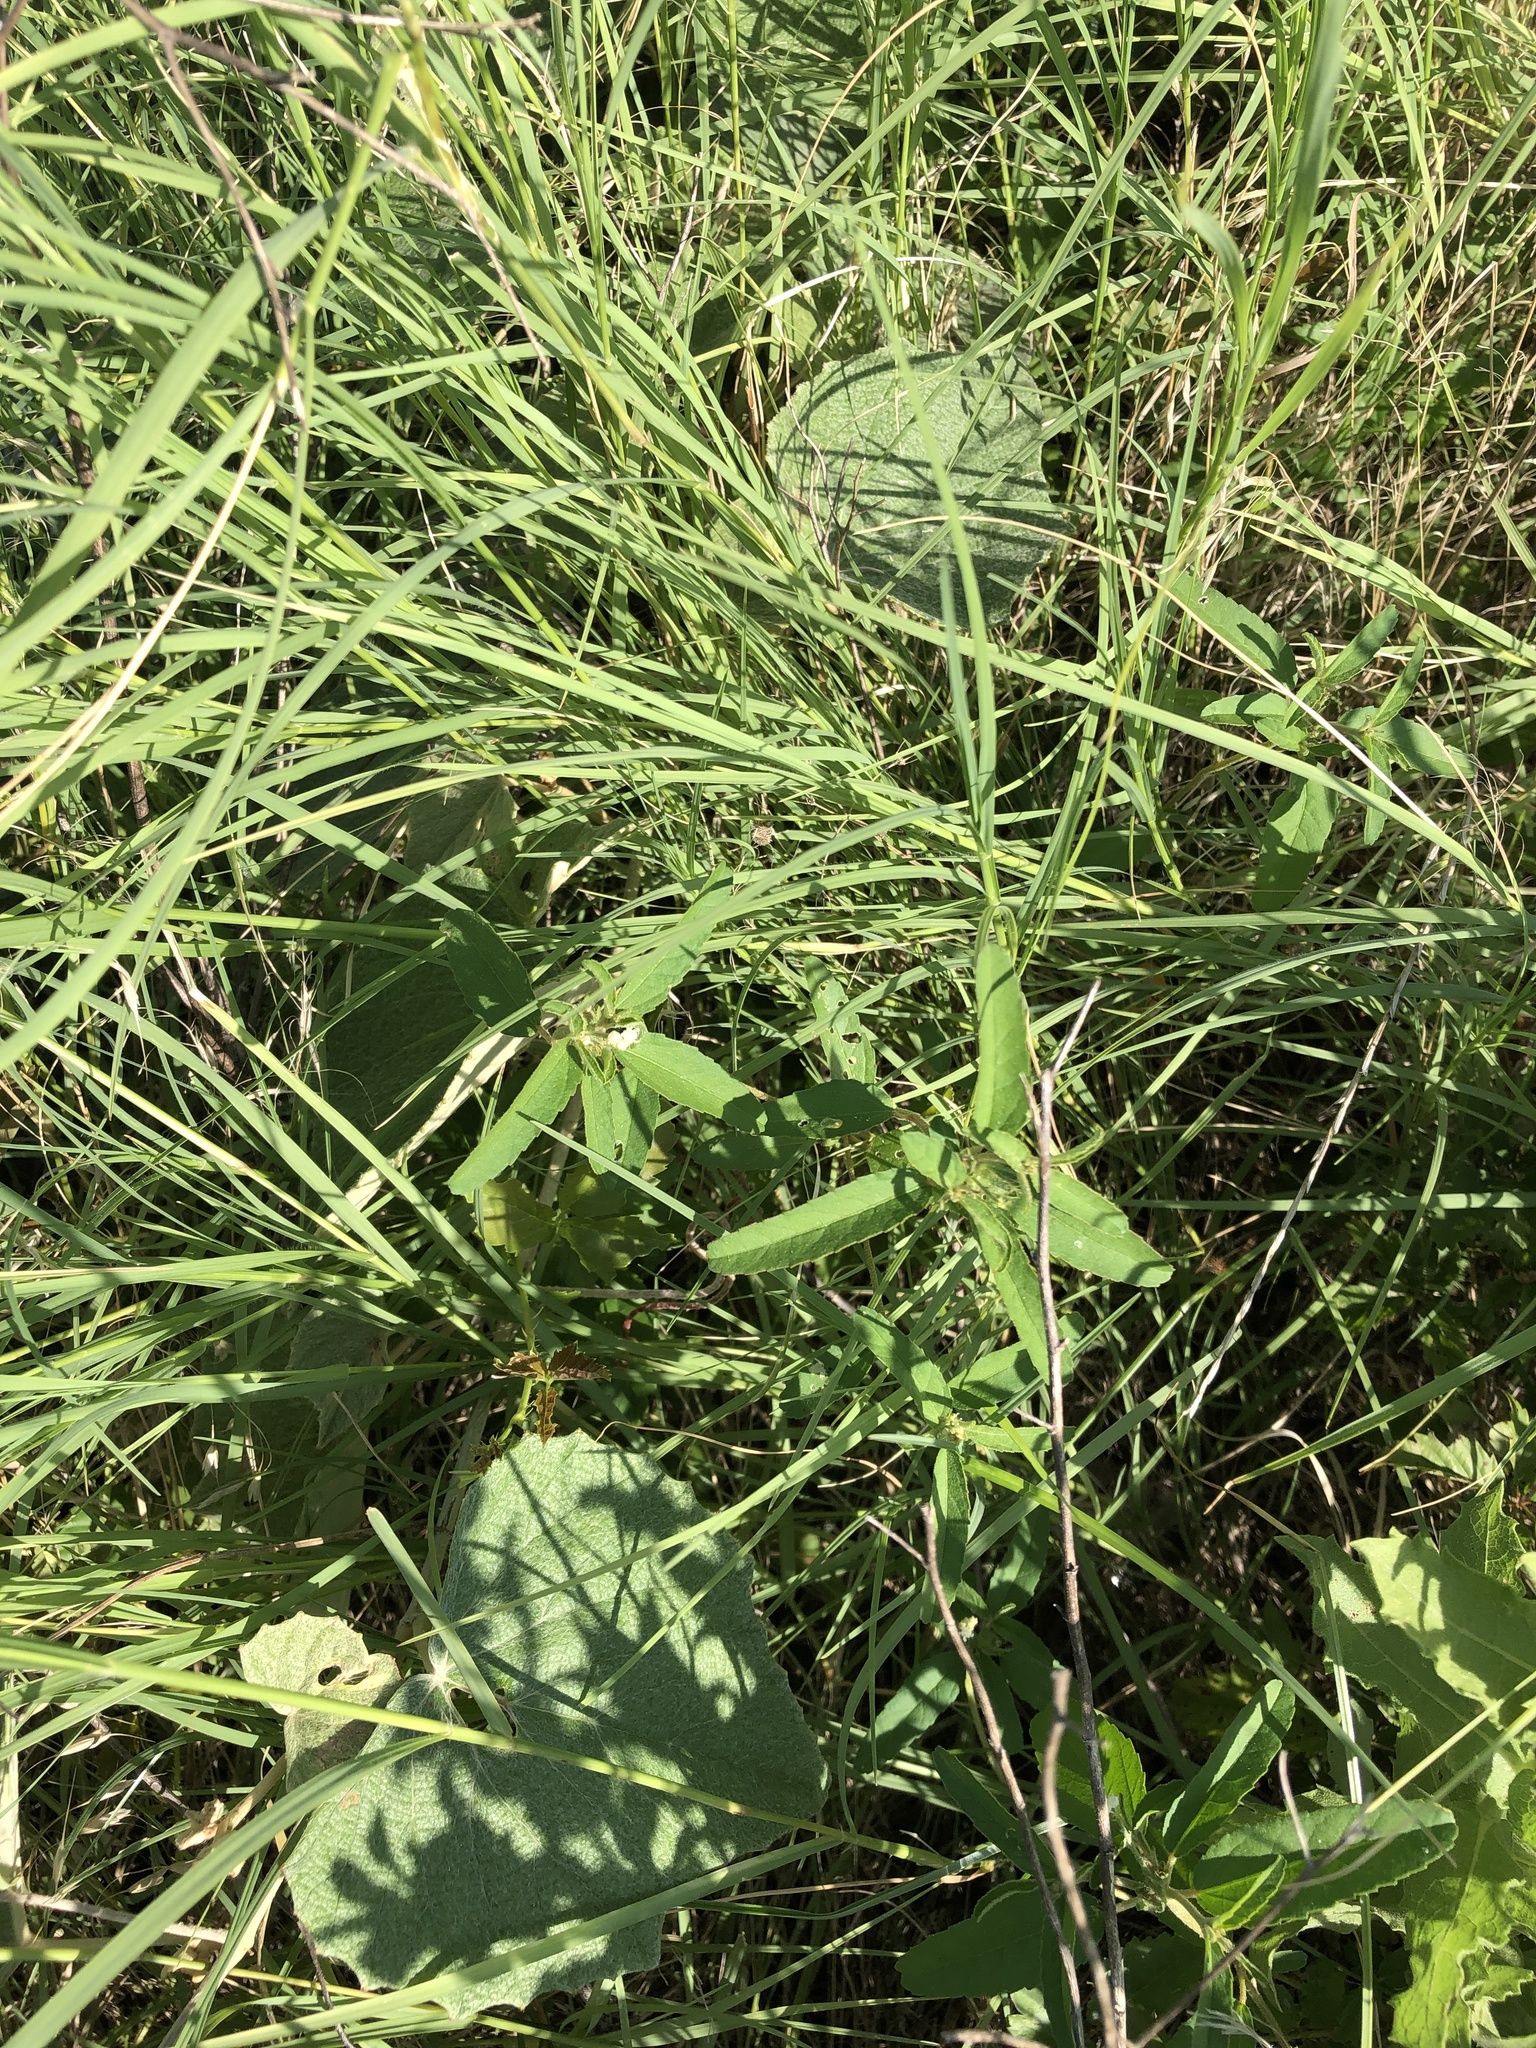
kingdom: Plantae
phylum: Tracheophyta
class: Magnoliopsida
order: Malpighiales
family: Euphorbiaceae
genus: Croton
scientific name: Croton glandulosus
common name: Tropic croton
